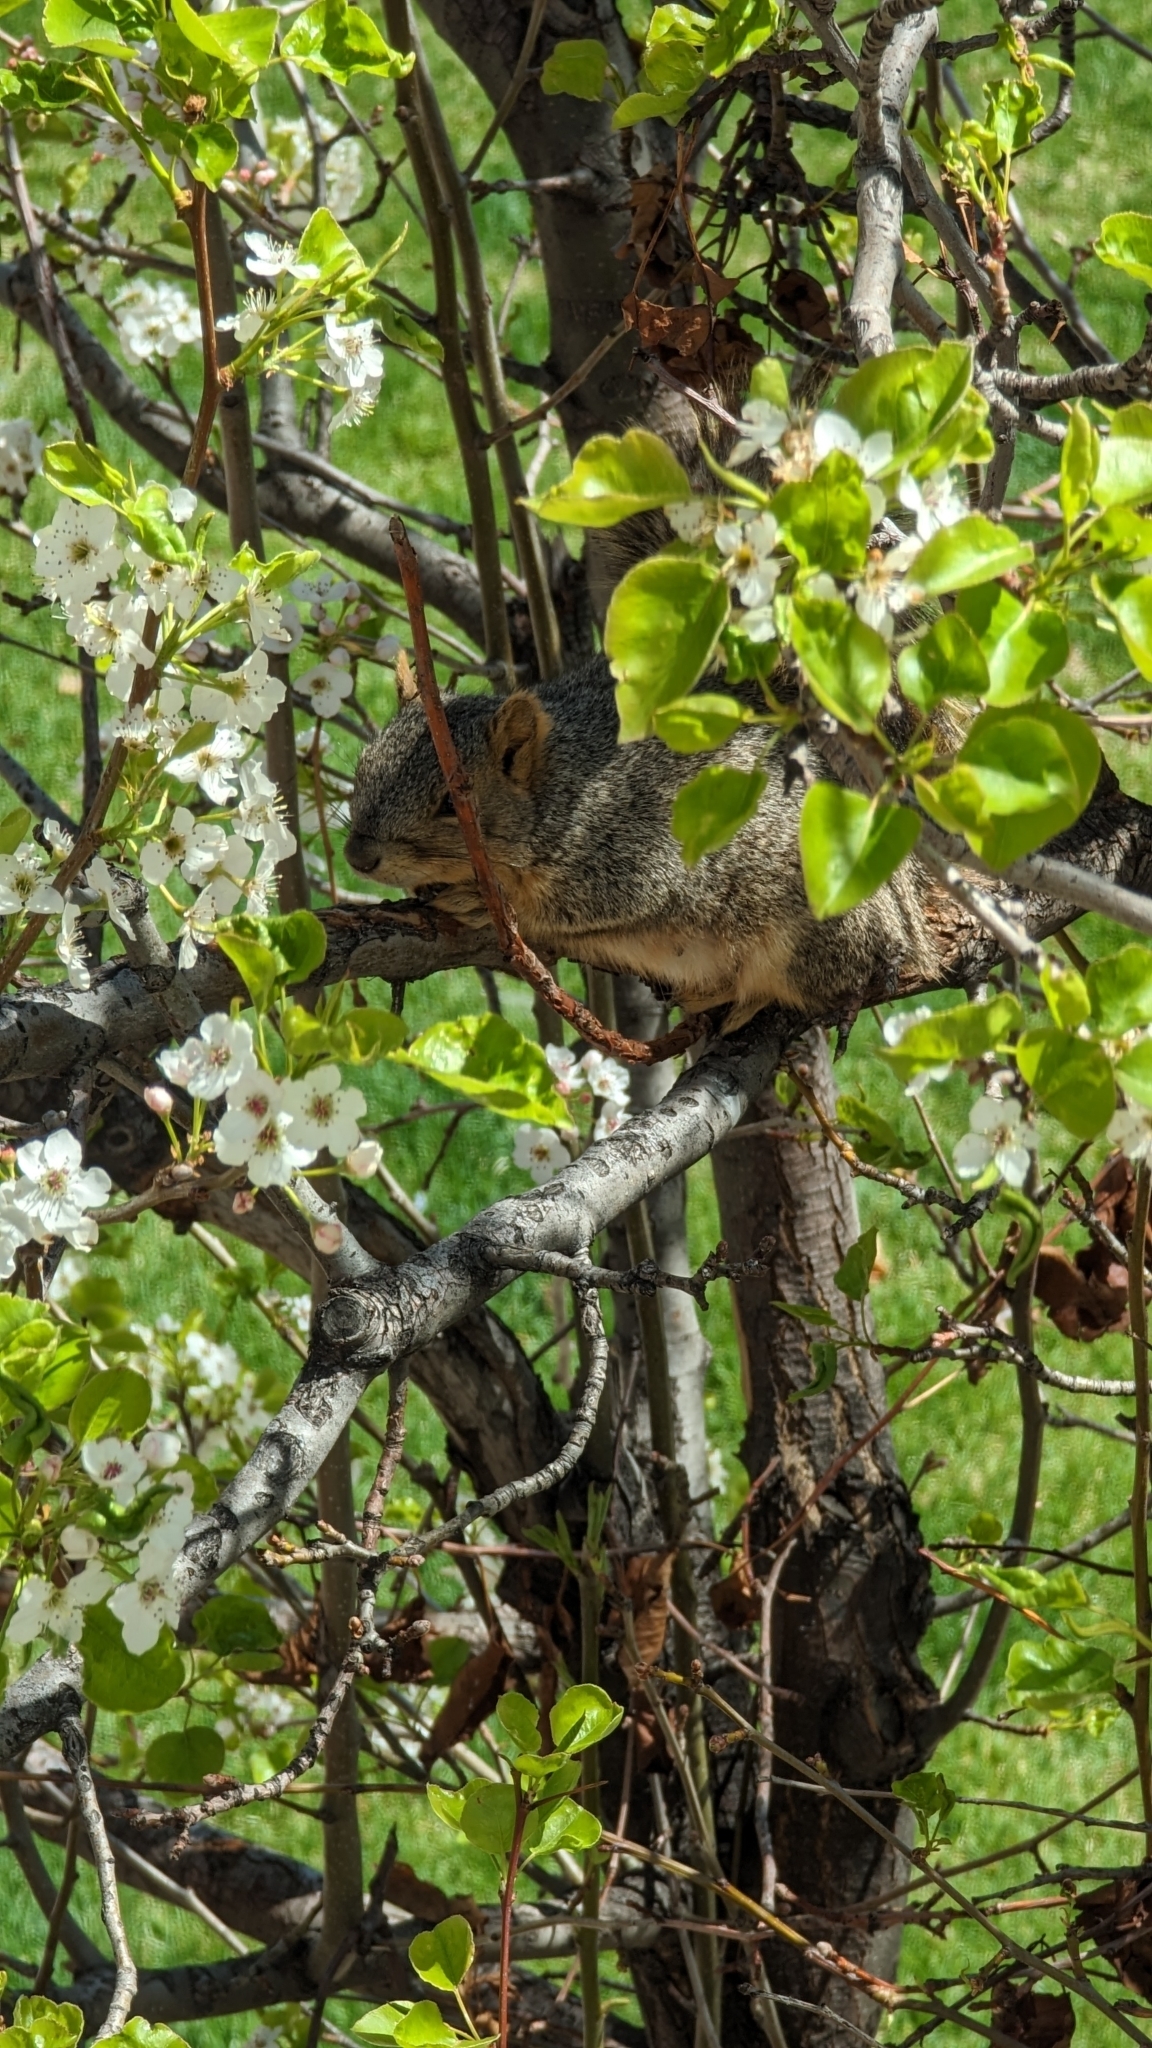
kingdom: Animalia
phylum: Chordata
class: Mammalia
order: Rodentia
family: Sciuridae
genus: Sciurus
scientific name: Sciurus niger
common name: Fox squirrel
